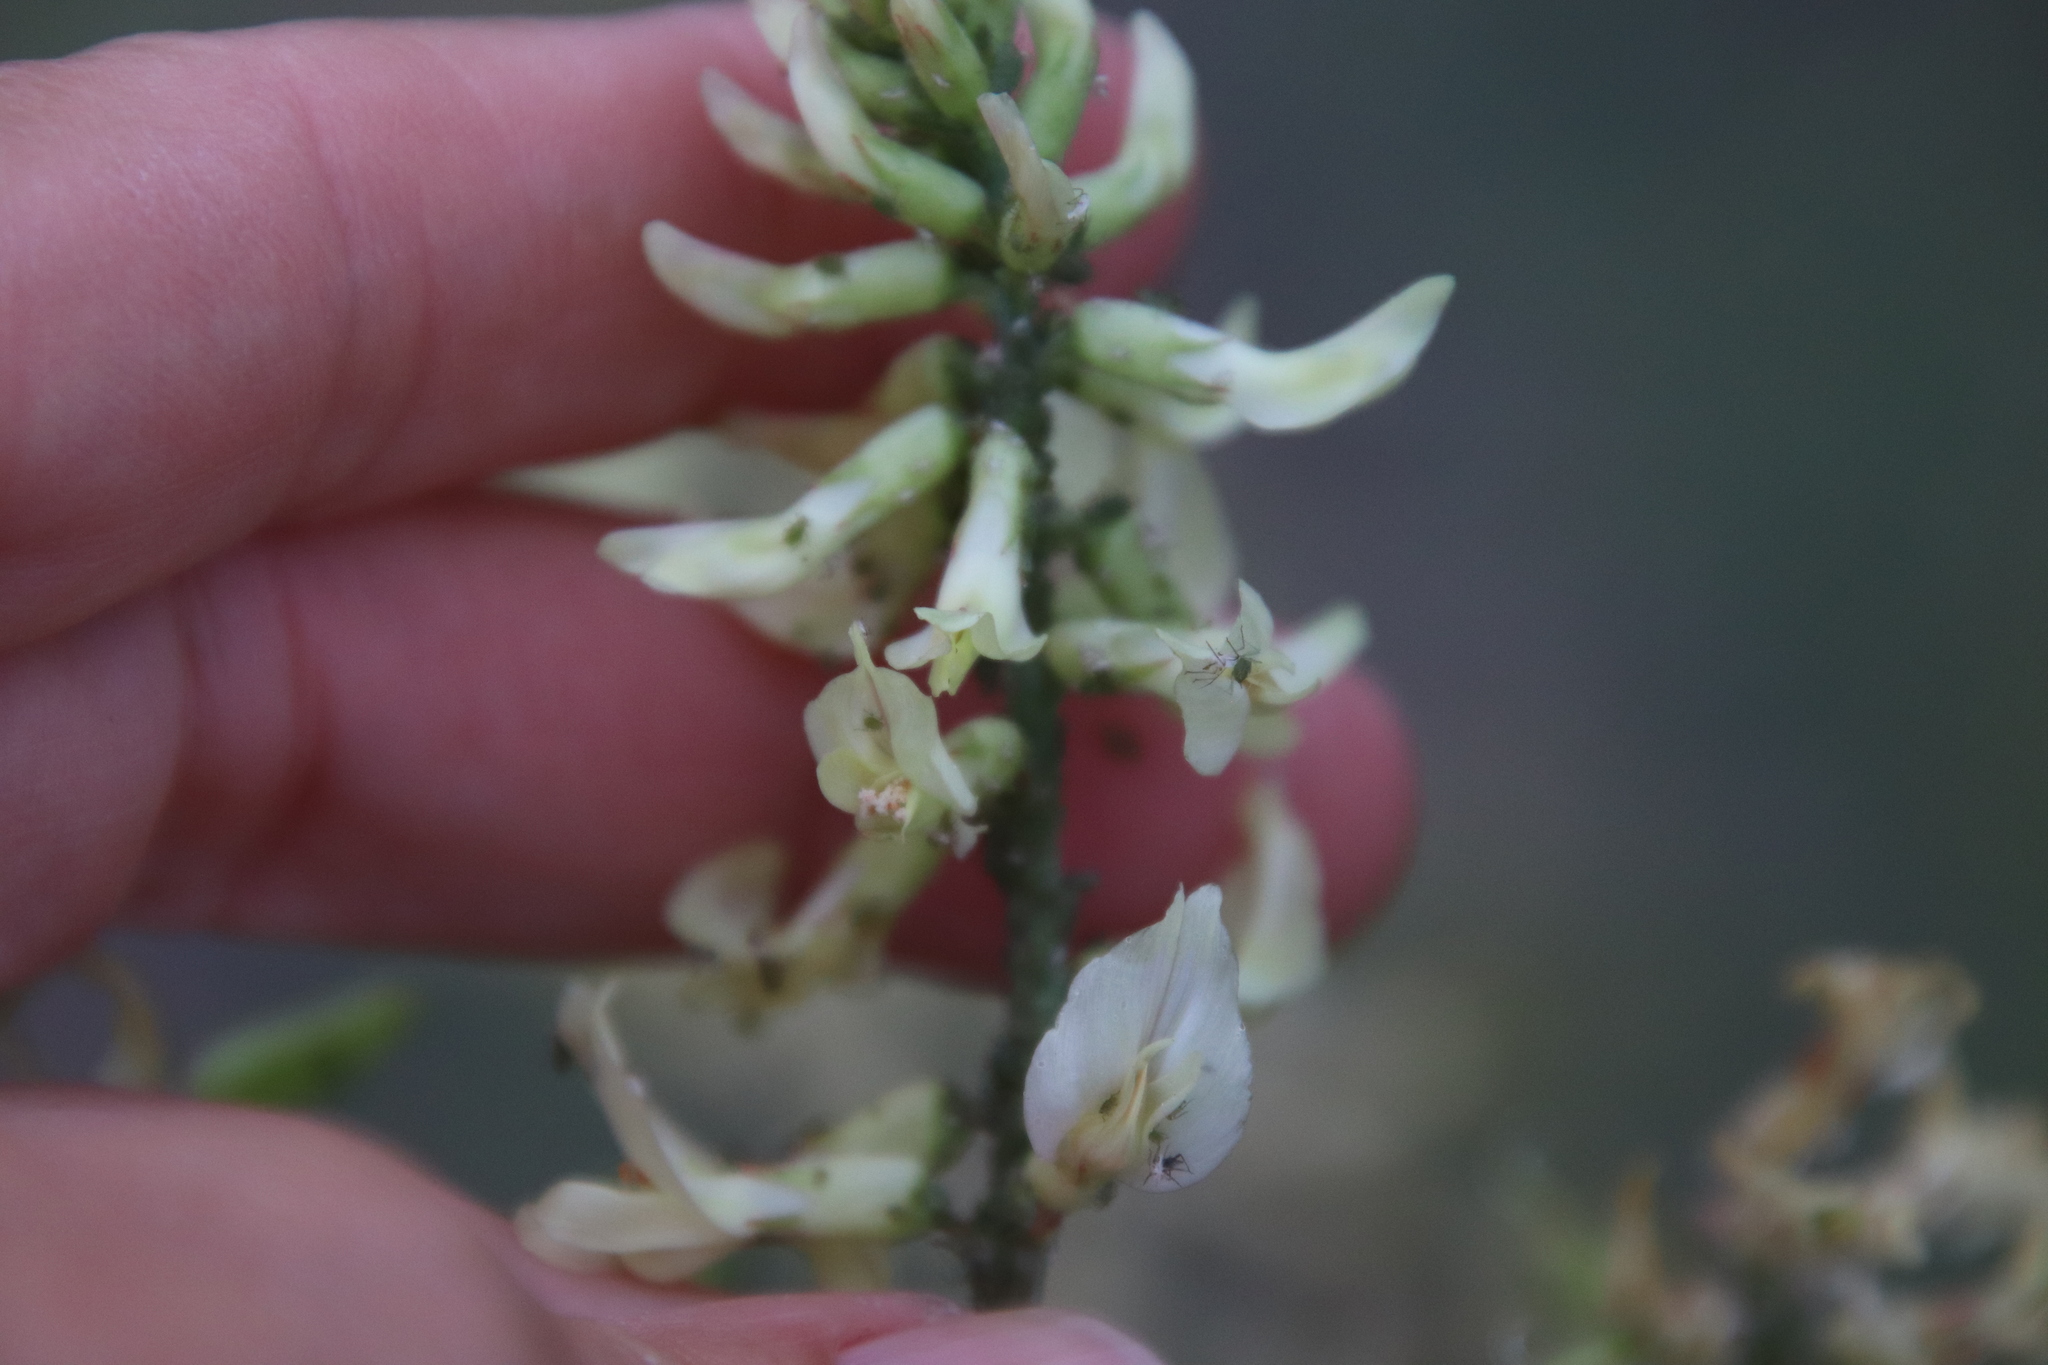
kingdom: Plantae
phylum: Tracheophyta
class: Magnoliopsida
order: Fabales
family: Fabaceae
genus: Astragalus
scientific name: Astragalus trichopodus
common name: Santa barbara milk-vetch
